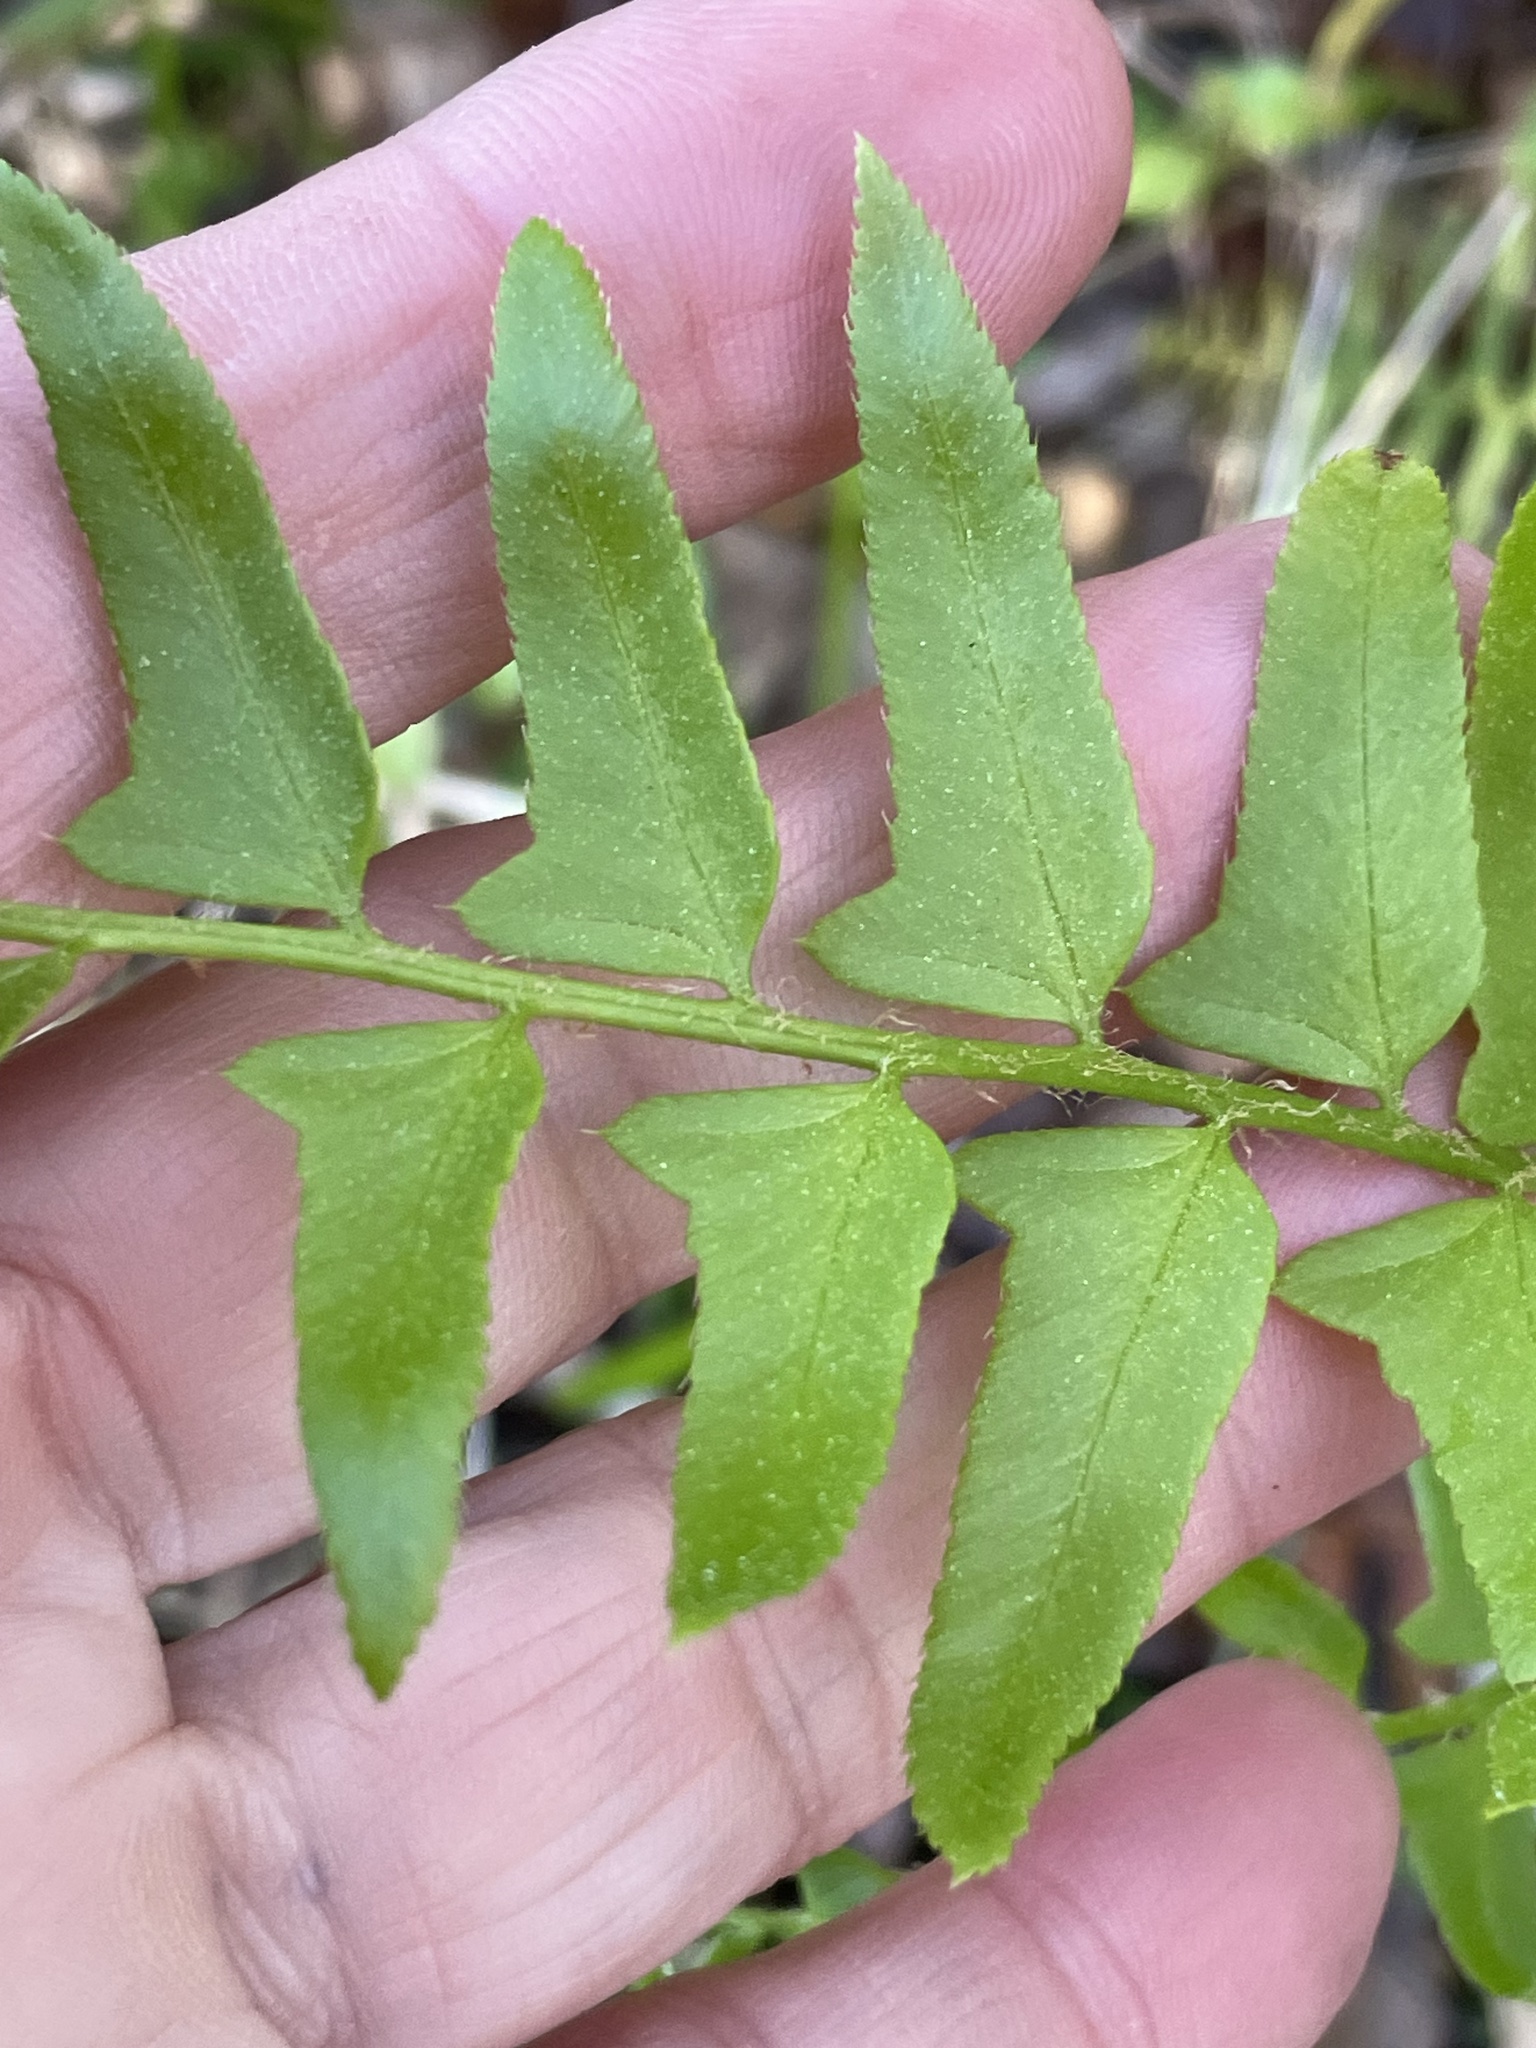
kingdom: Plantae
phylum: Tracheophyta
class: Polypodiopsida
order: Polypodiales
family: Dryopteridaceae
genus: Polystichum
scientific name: Polystichum acrostichoides
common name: Christmas fern
